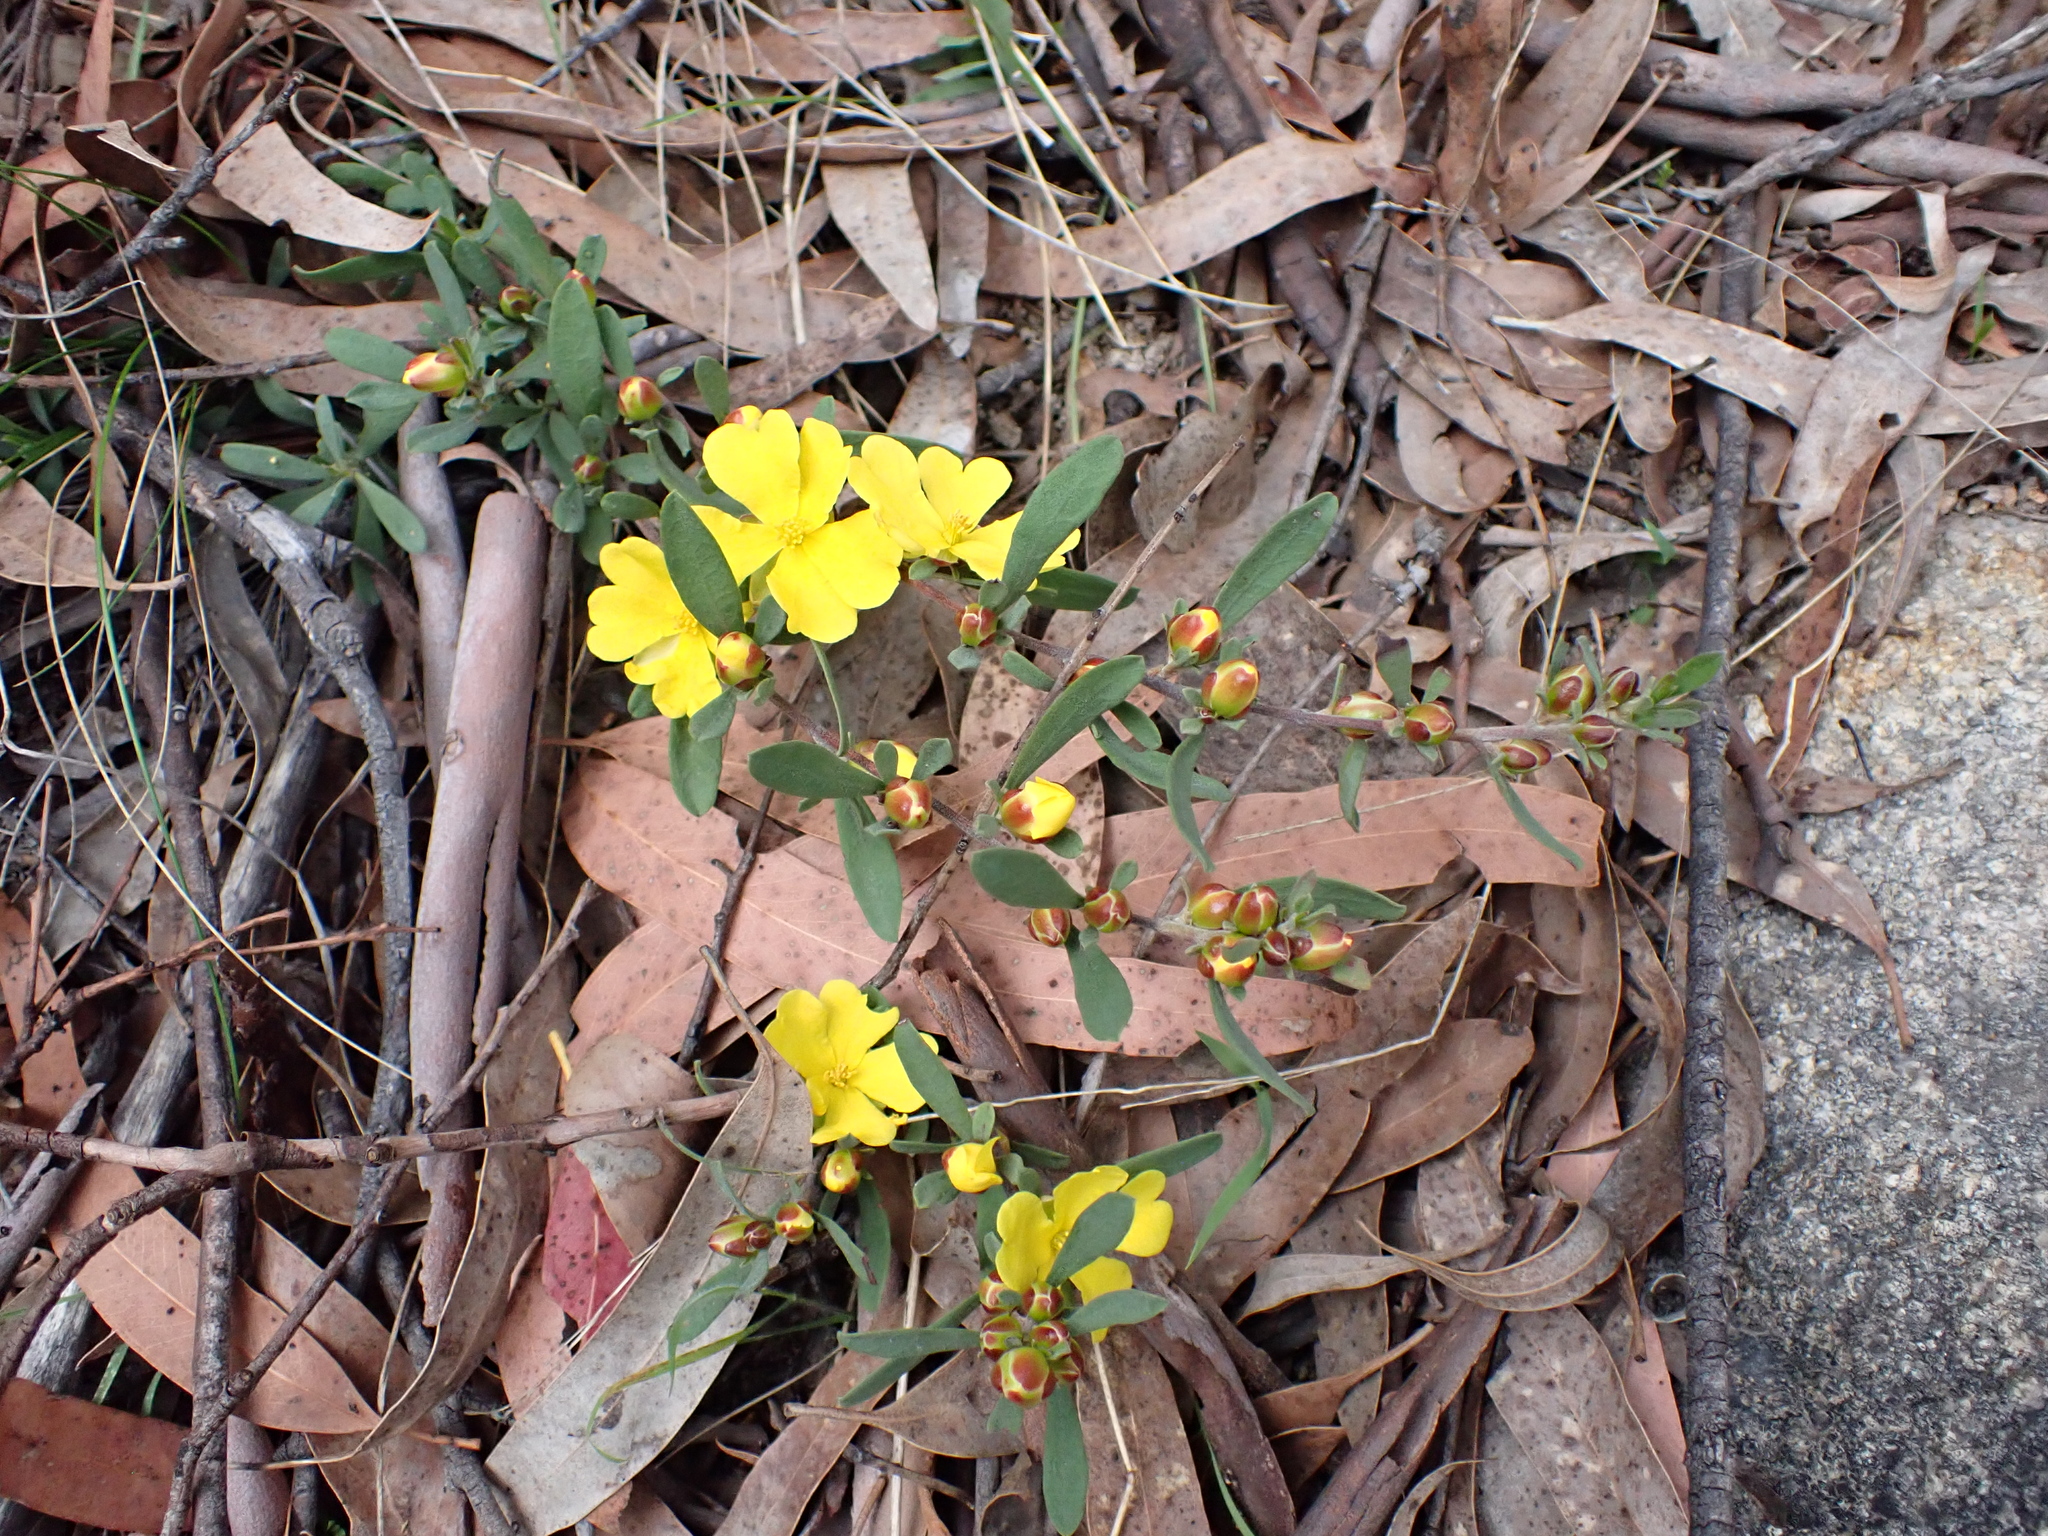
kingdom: Plantae
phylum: Tracheophyta
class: Magnoliopsida
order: Dilleniales
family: Dilleniaceae
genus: Hibbertia
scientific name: Hibbertia obtusifolia
